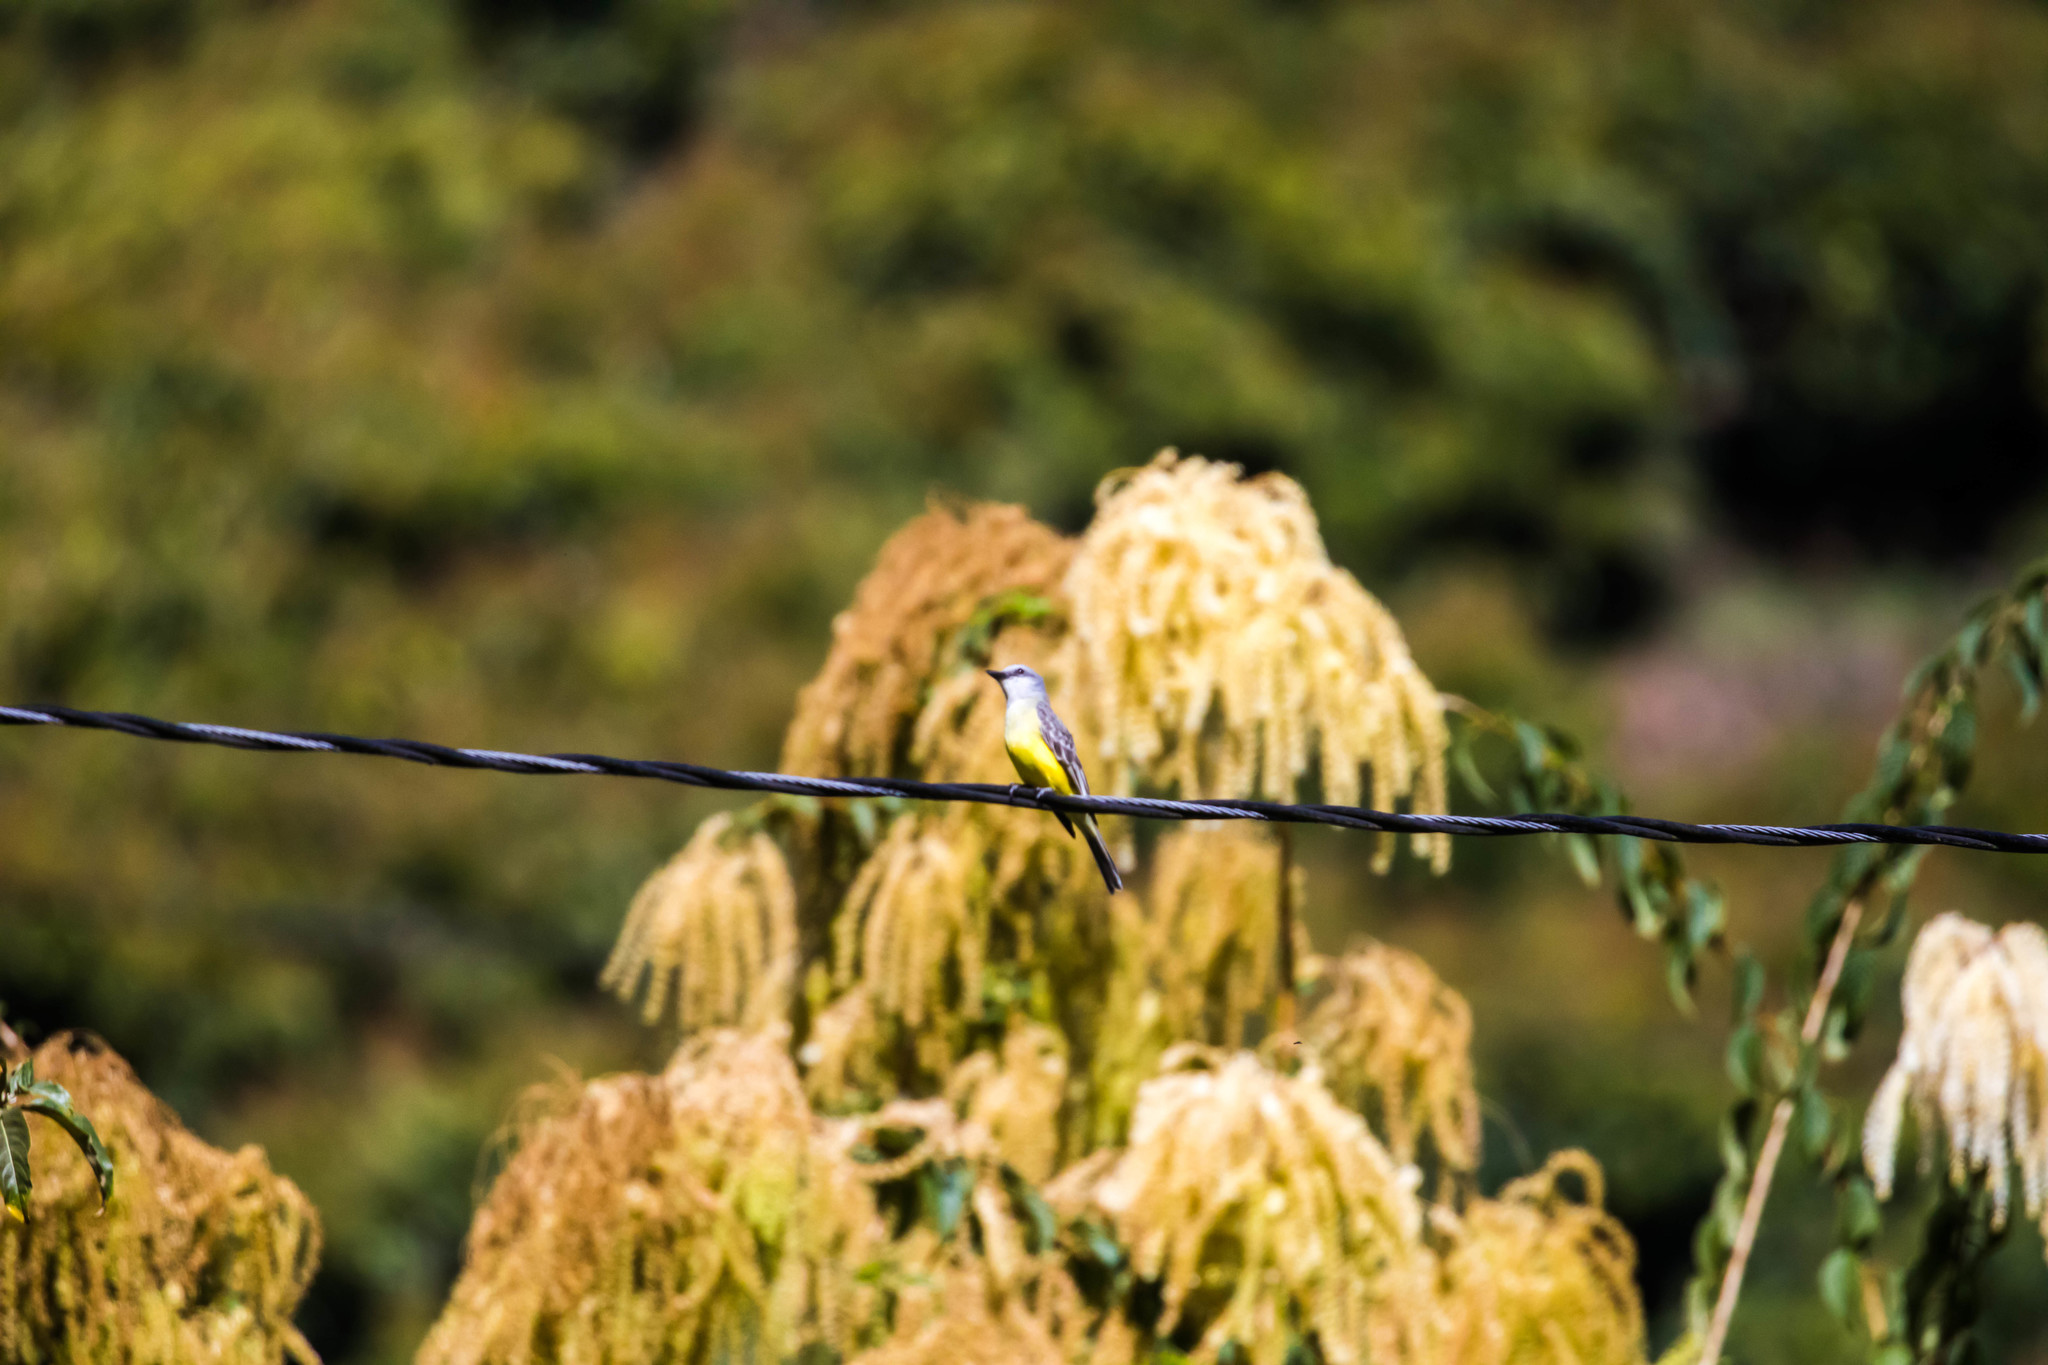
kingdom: Animalia
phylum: Chordata
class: Aves
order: Passeriformes
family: Tyrannidae
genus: Tyrannus
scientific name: Tyrannus melancholicus
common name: Tropical kingbird
